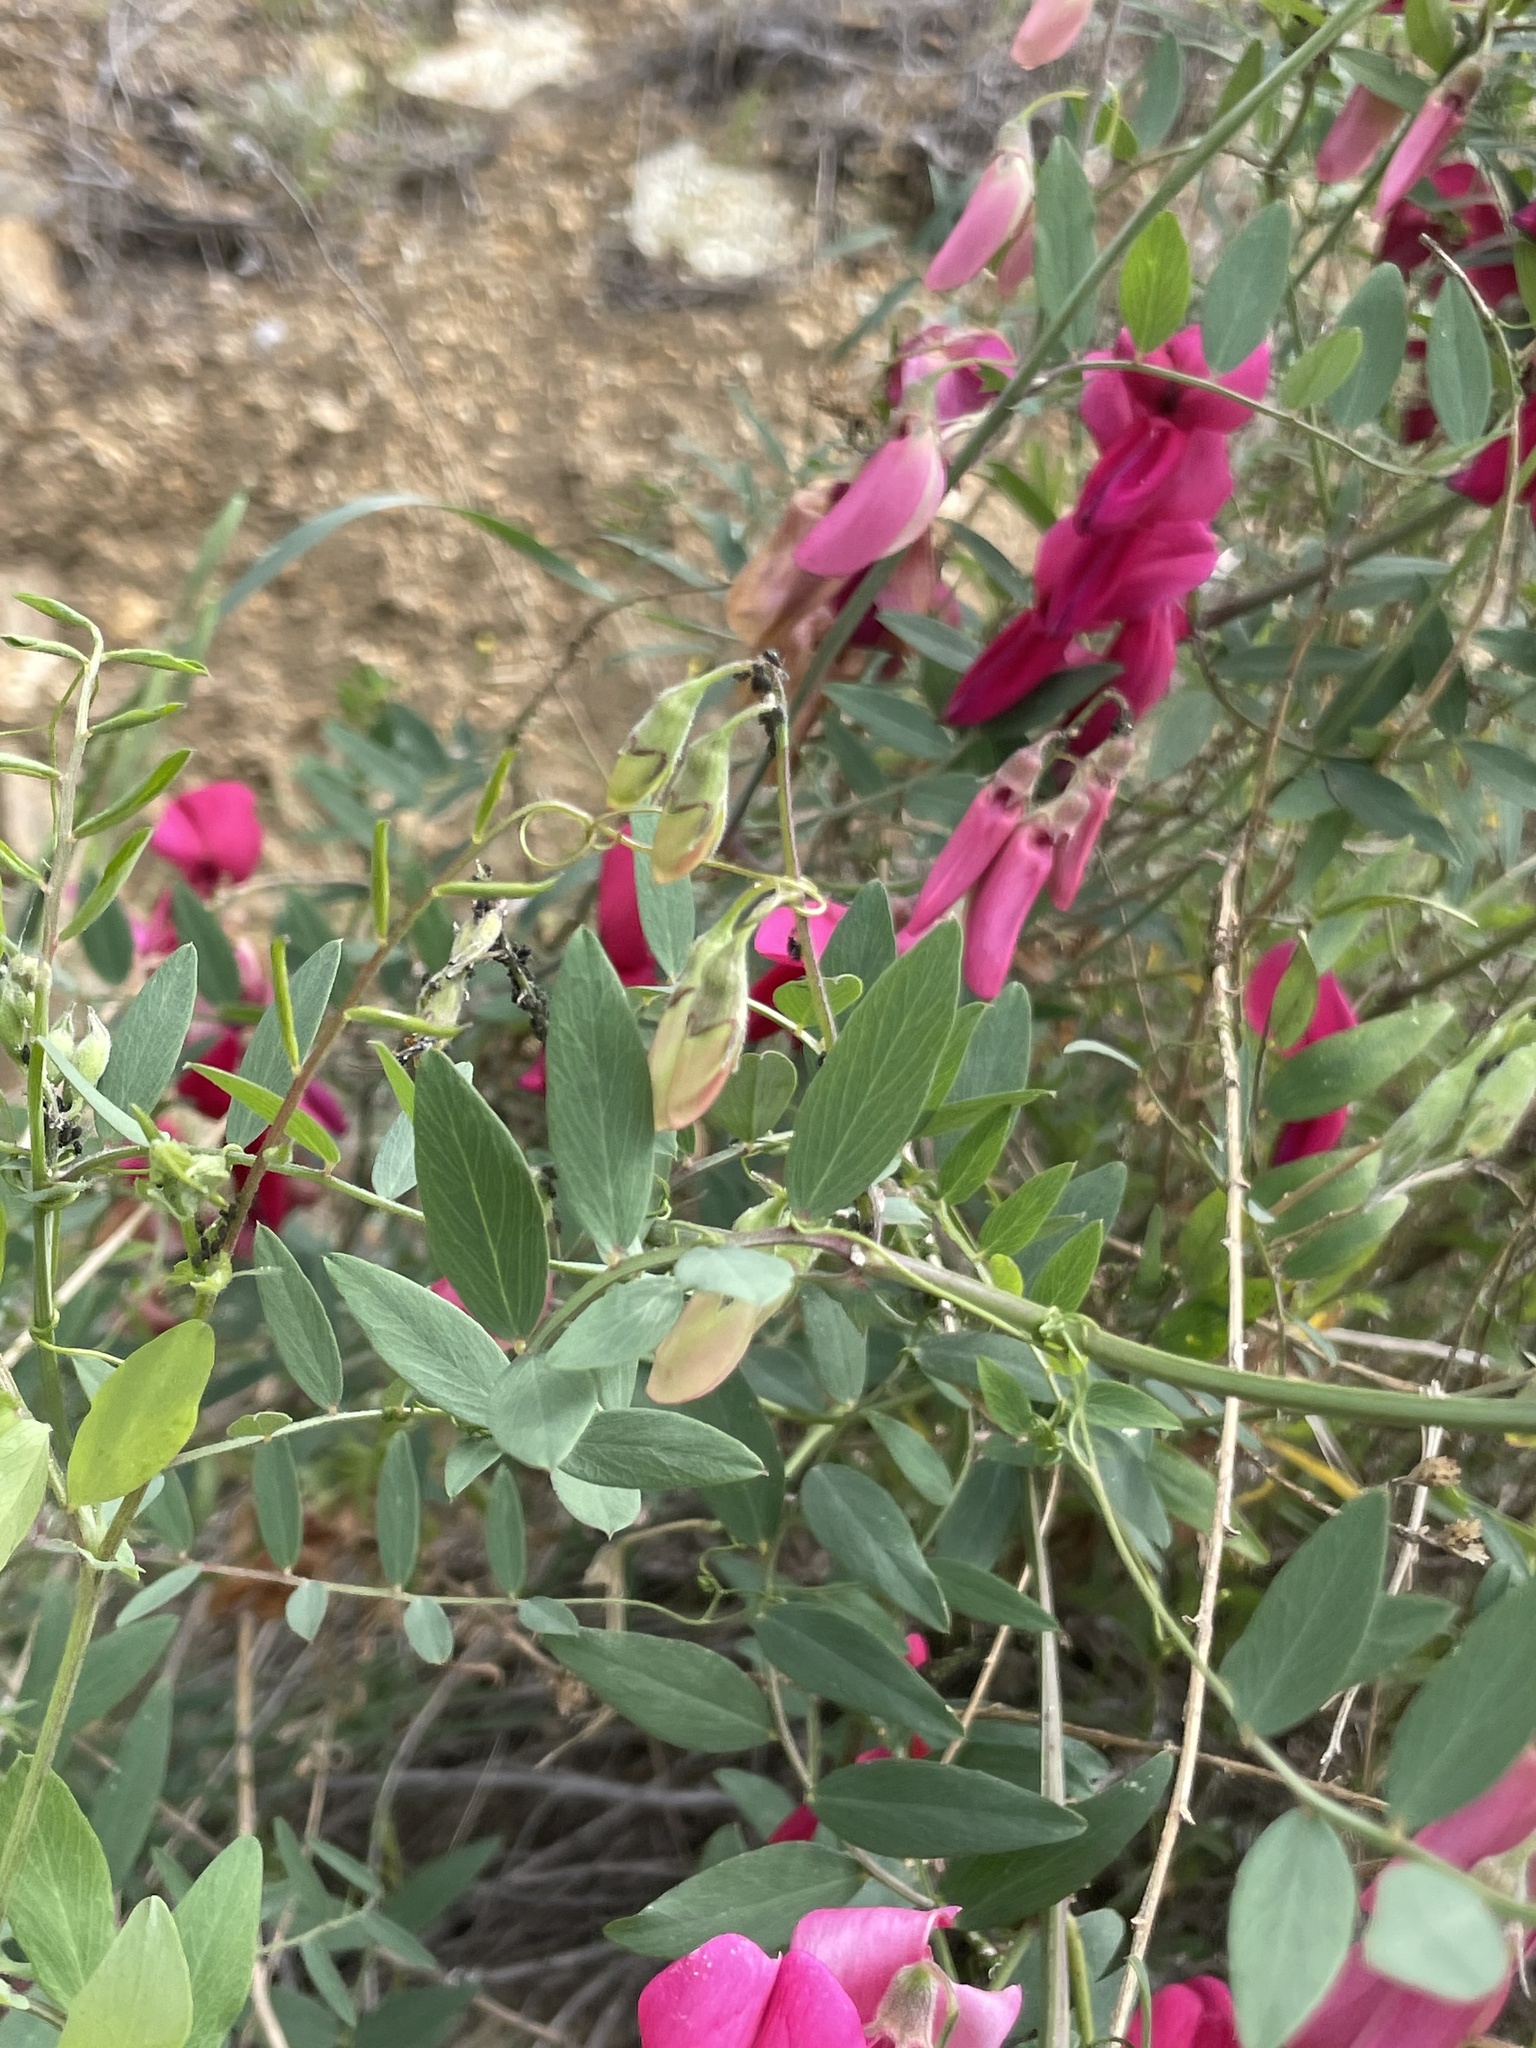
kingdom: Plantae
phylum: Tracheophyta
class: Magnoliopsida
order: Fabales
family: Fabaceae
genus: Lathyrus
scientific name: Lathyrus splendens
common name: Campo-pea
